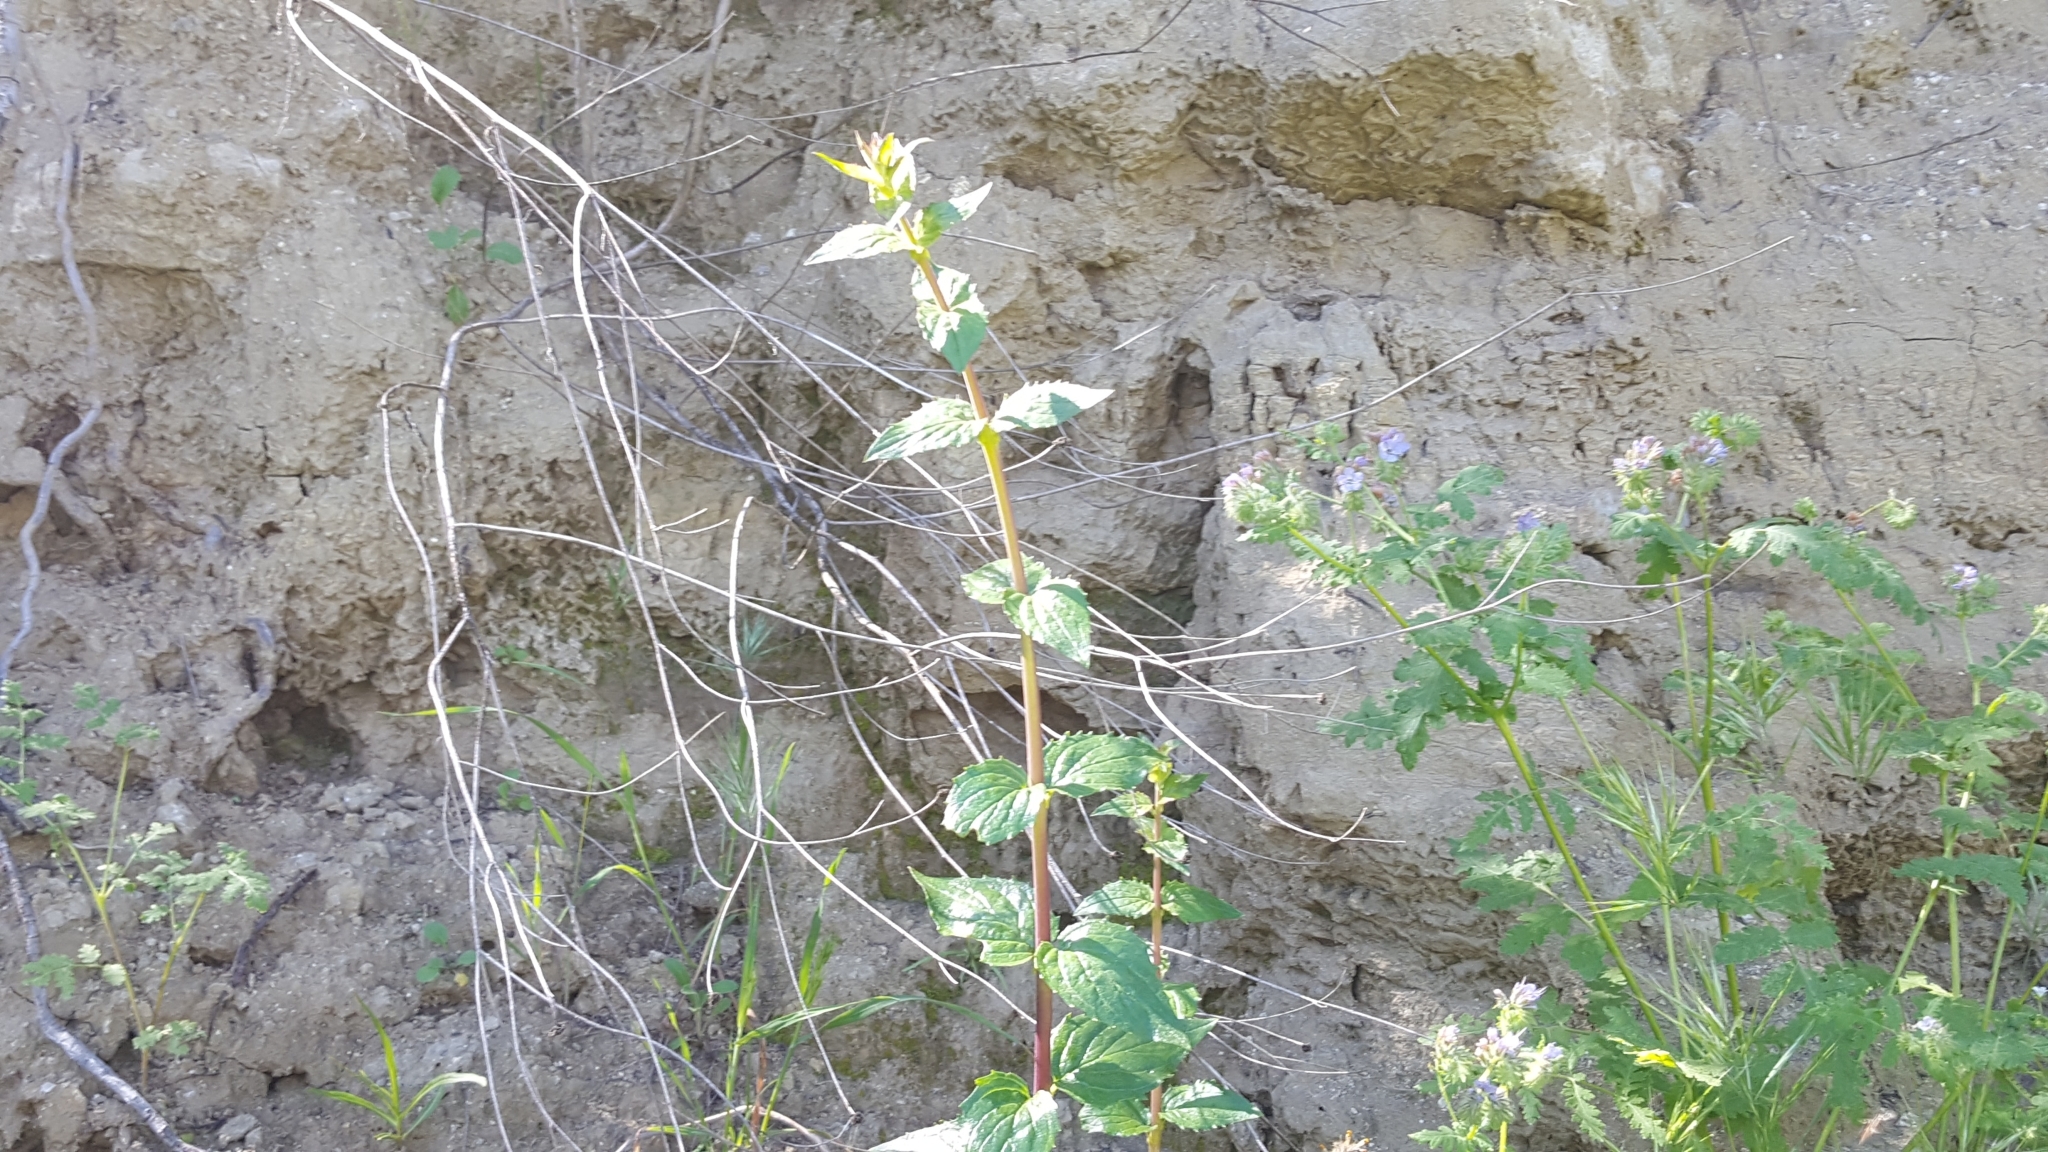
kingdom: Plantae
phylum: Tracheophyta
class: Magnoliopsida
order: Lamiales
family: Plantaginaceae
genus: Keckiella
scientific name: Keckiella cordifolia
